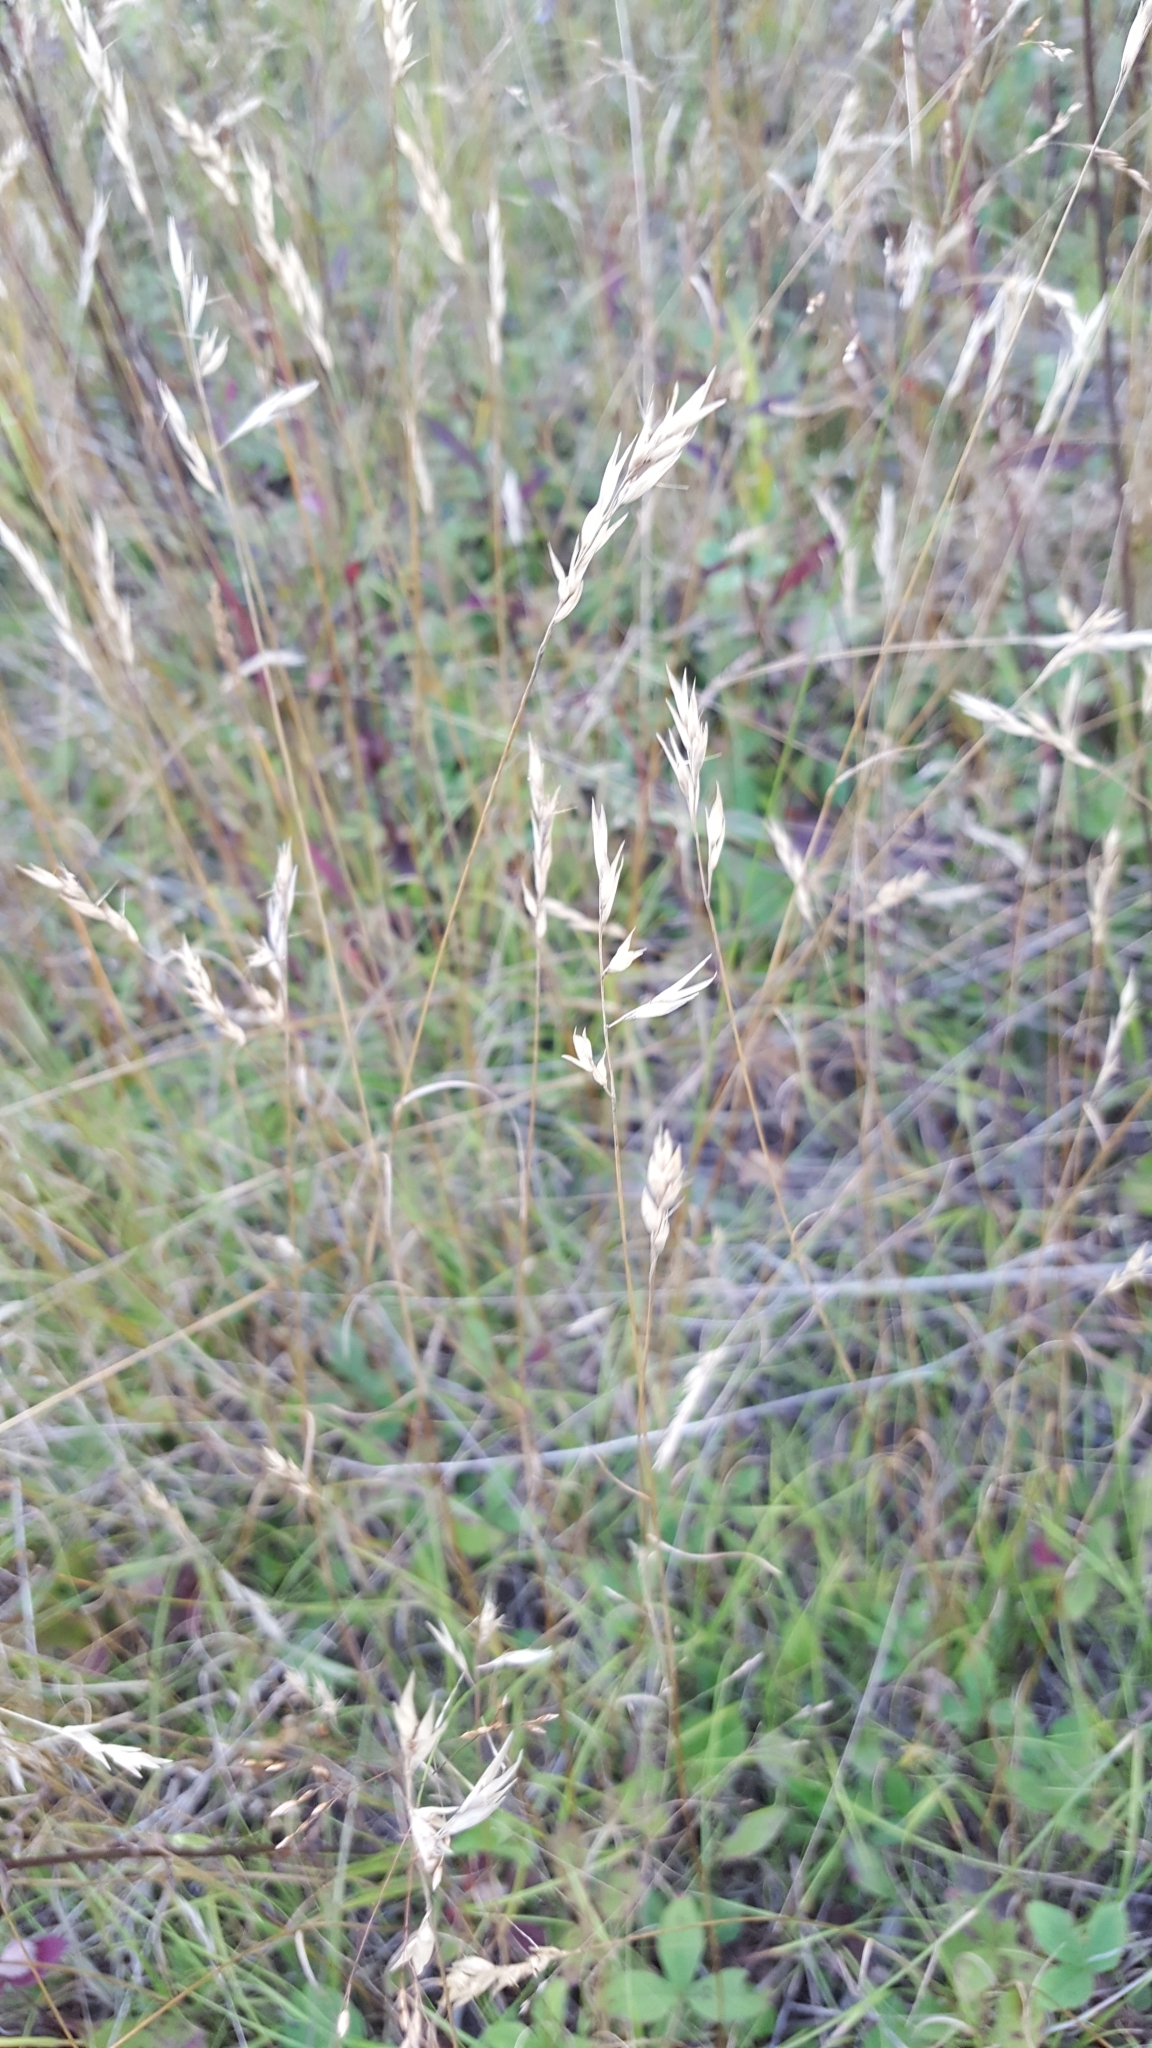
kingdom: Plantae
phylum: Tracheophyta
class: Liliopsida
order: Poales
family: Poaceae
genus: Danthonia
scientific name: Danthonia spicata
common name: Common wild oatgrass
